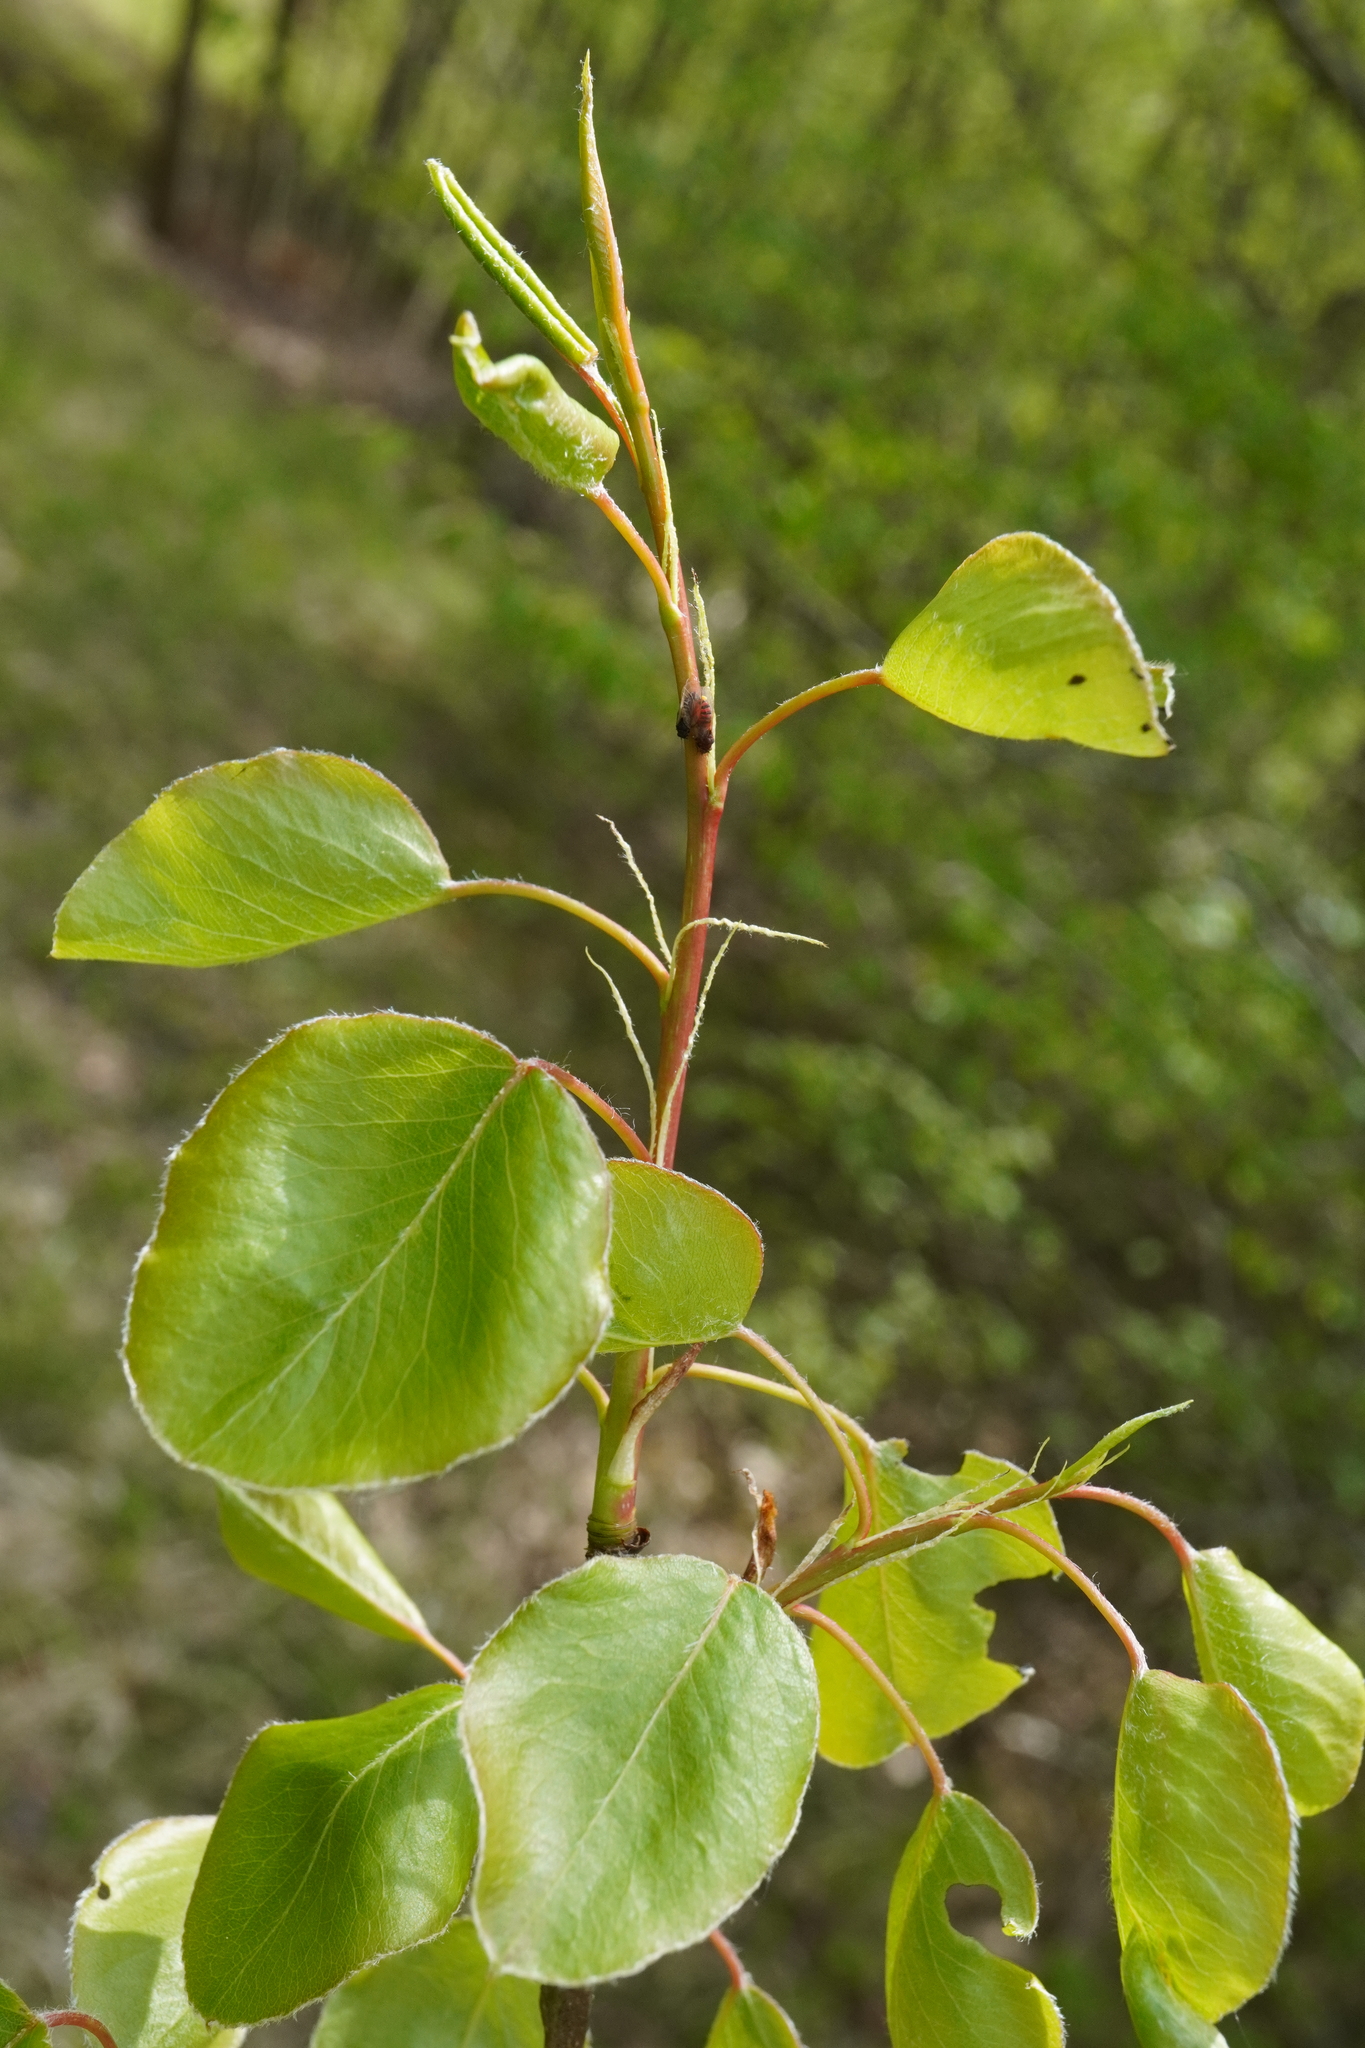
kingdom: Plantae
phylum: Tracheophyta
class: Magnoliopsida
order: Rosales
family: Rosaceae
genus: Pyrus
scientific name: Pyrus
